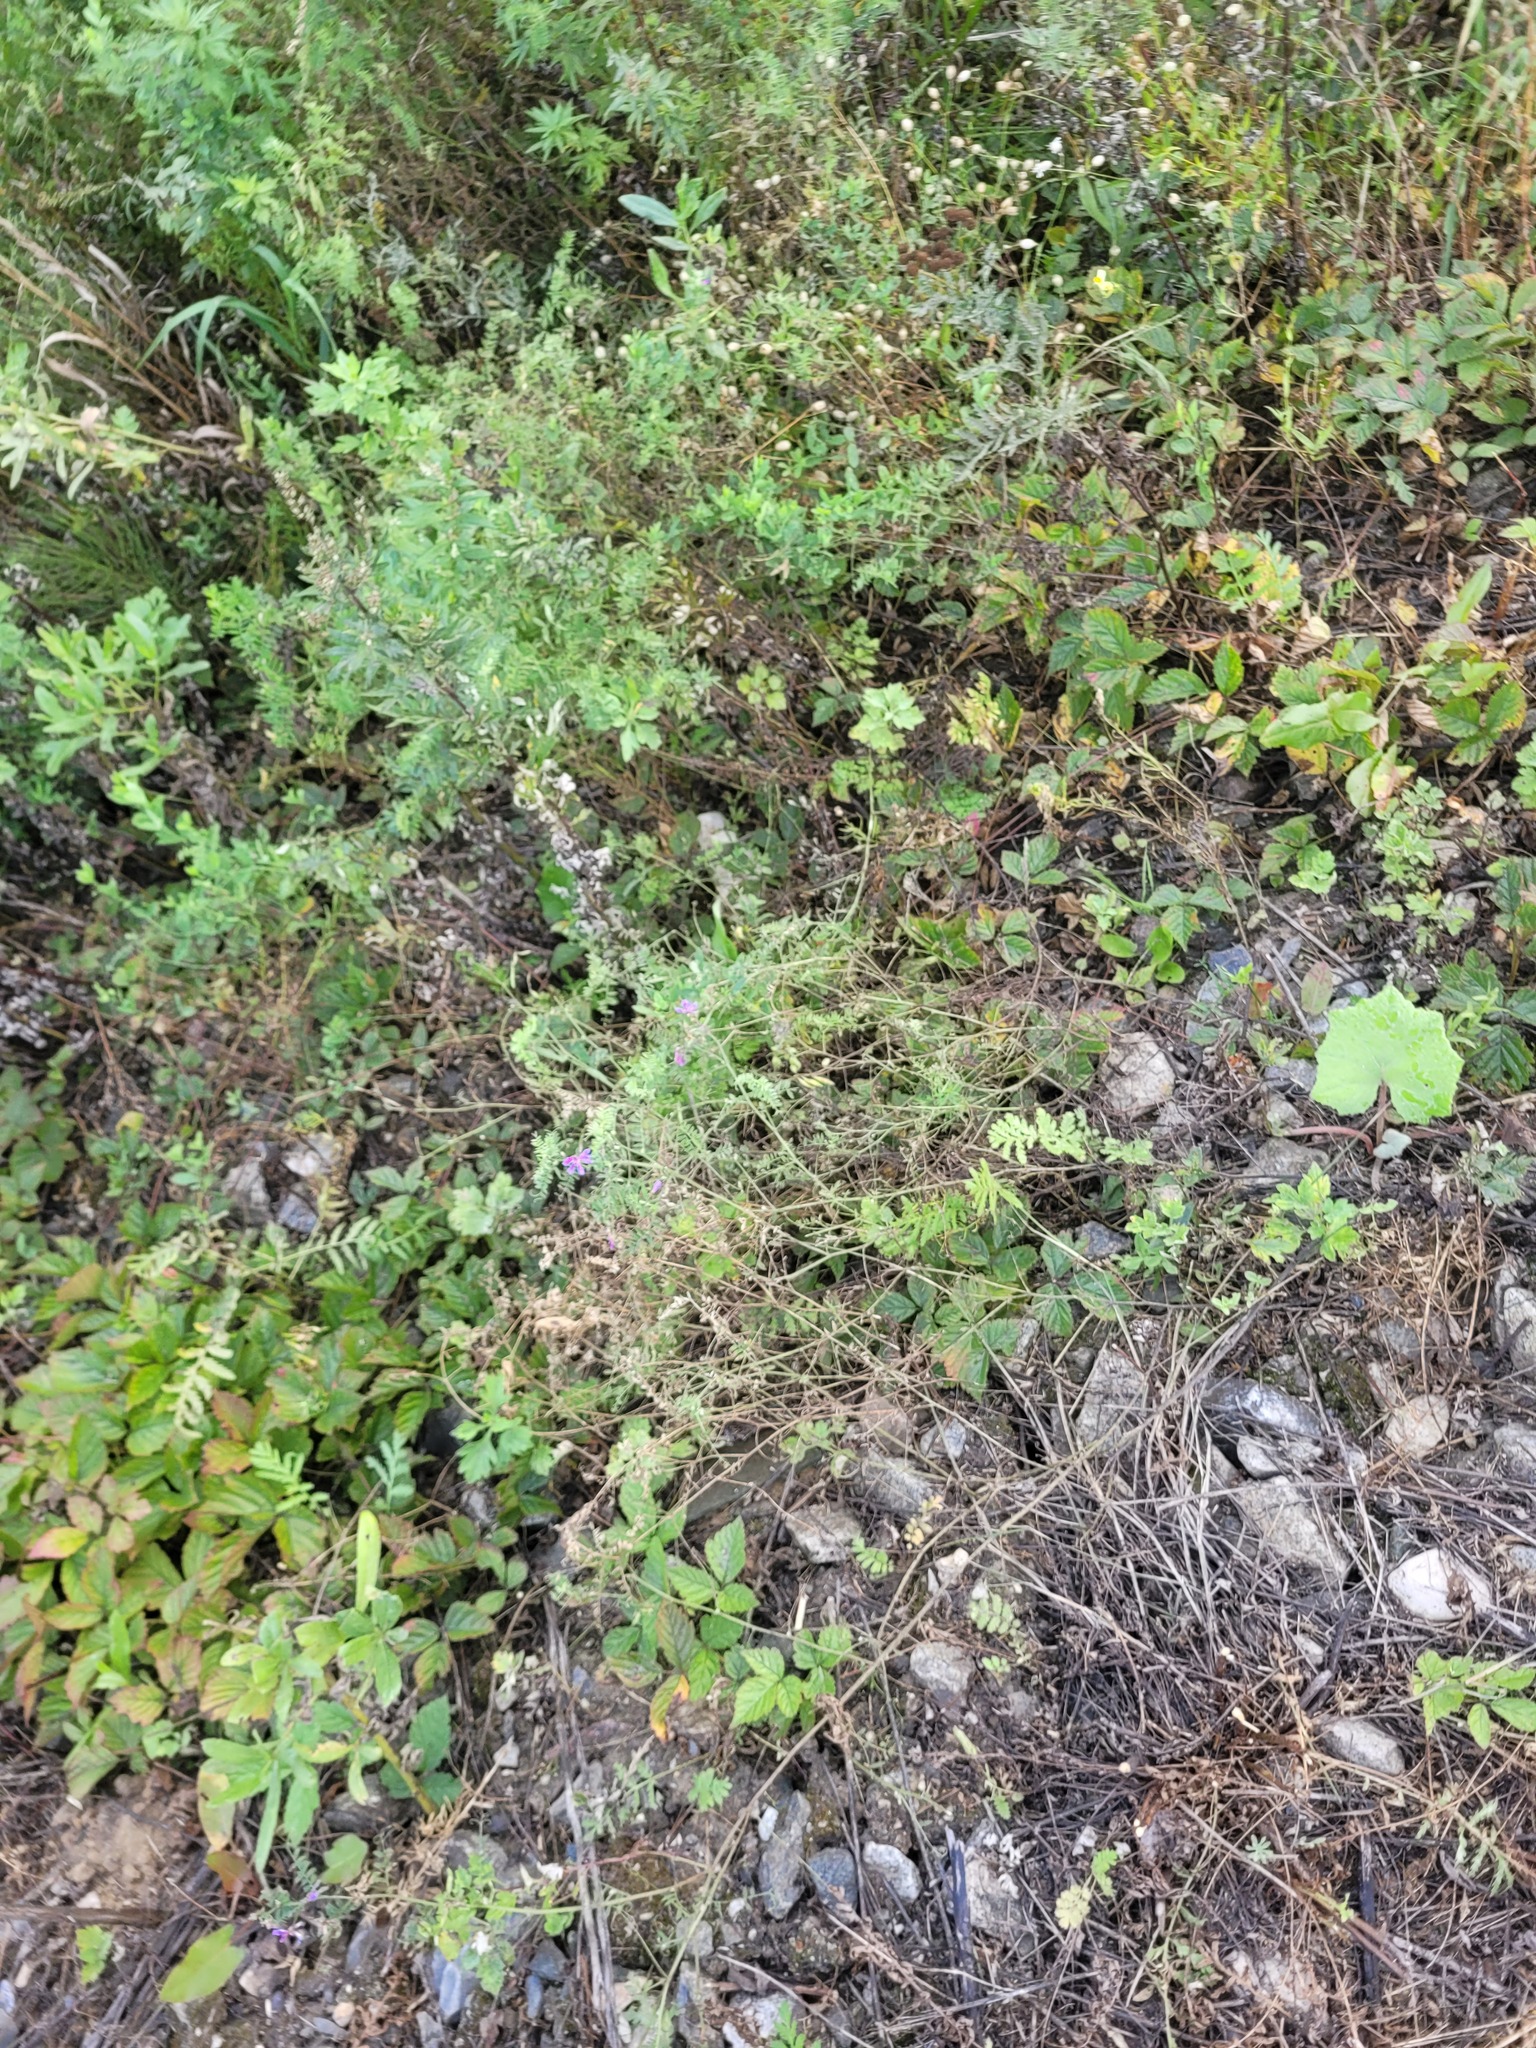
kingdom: Plantae
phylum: Tracheophyta
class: Magnoliopsida
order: Fabales
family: Fabaceae
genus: Vicia
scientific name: Vicia cracca
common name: Bird vetch
